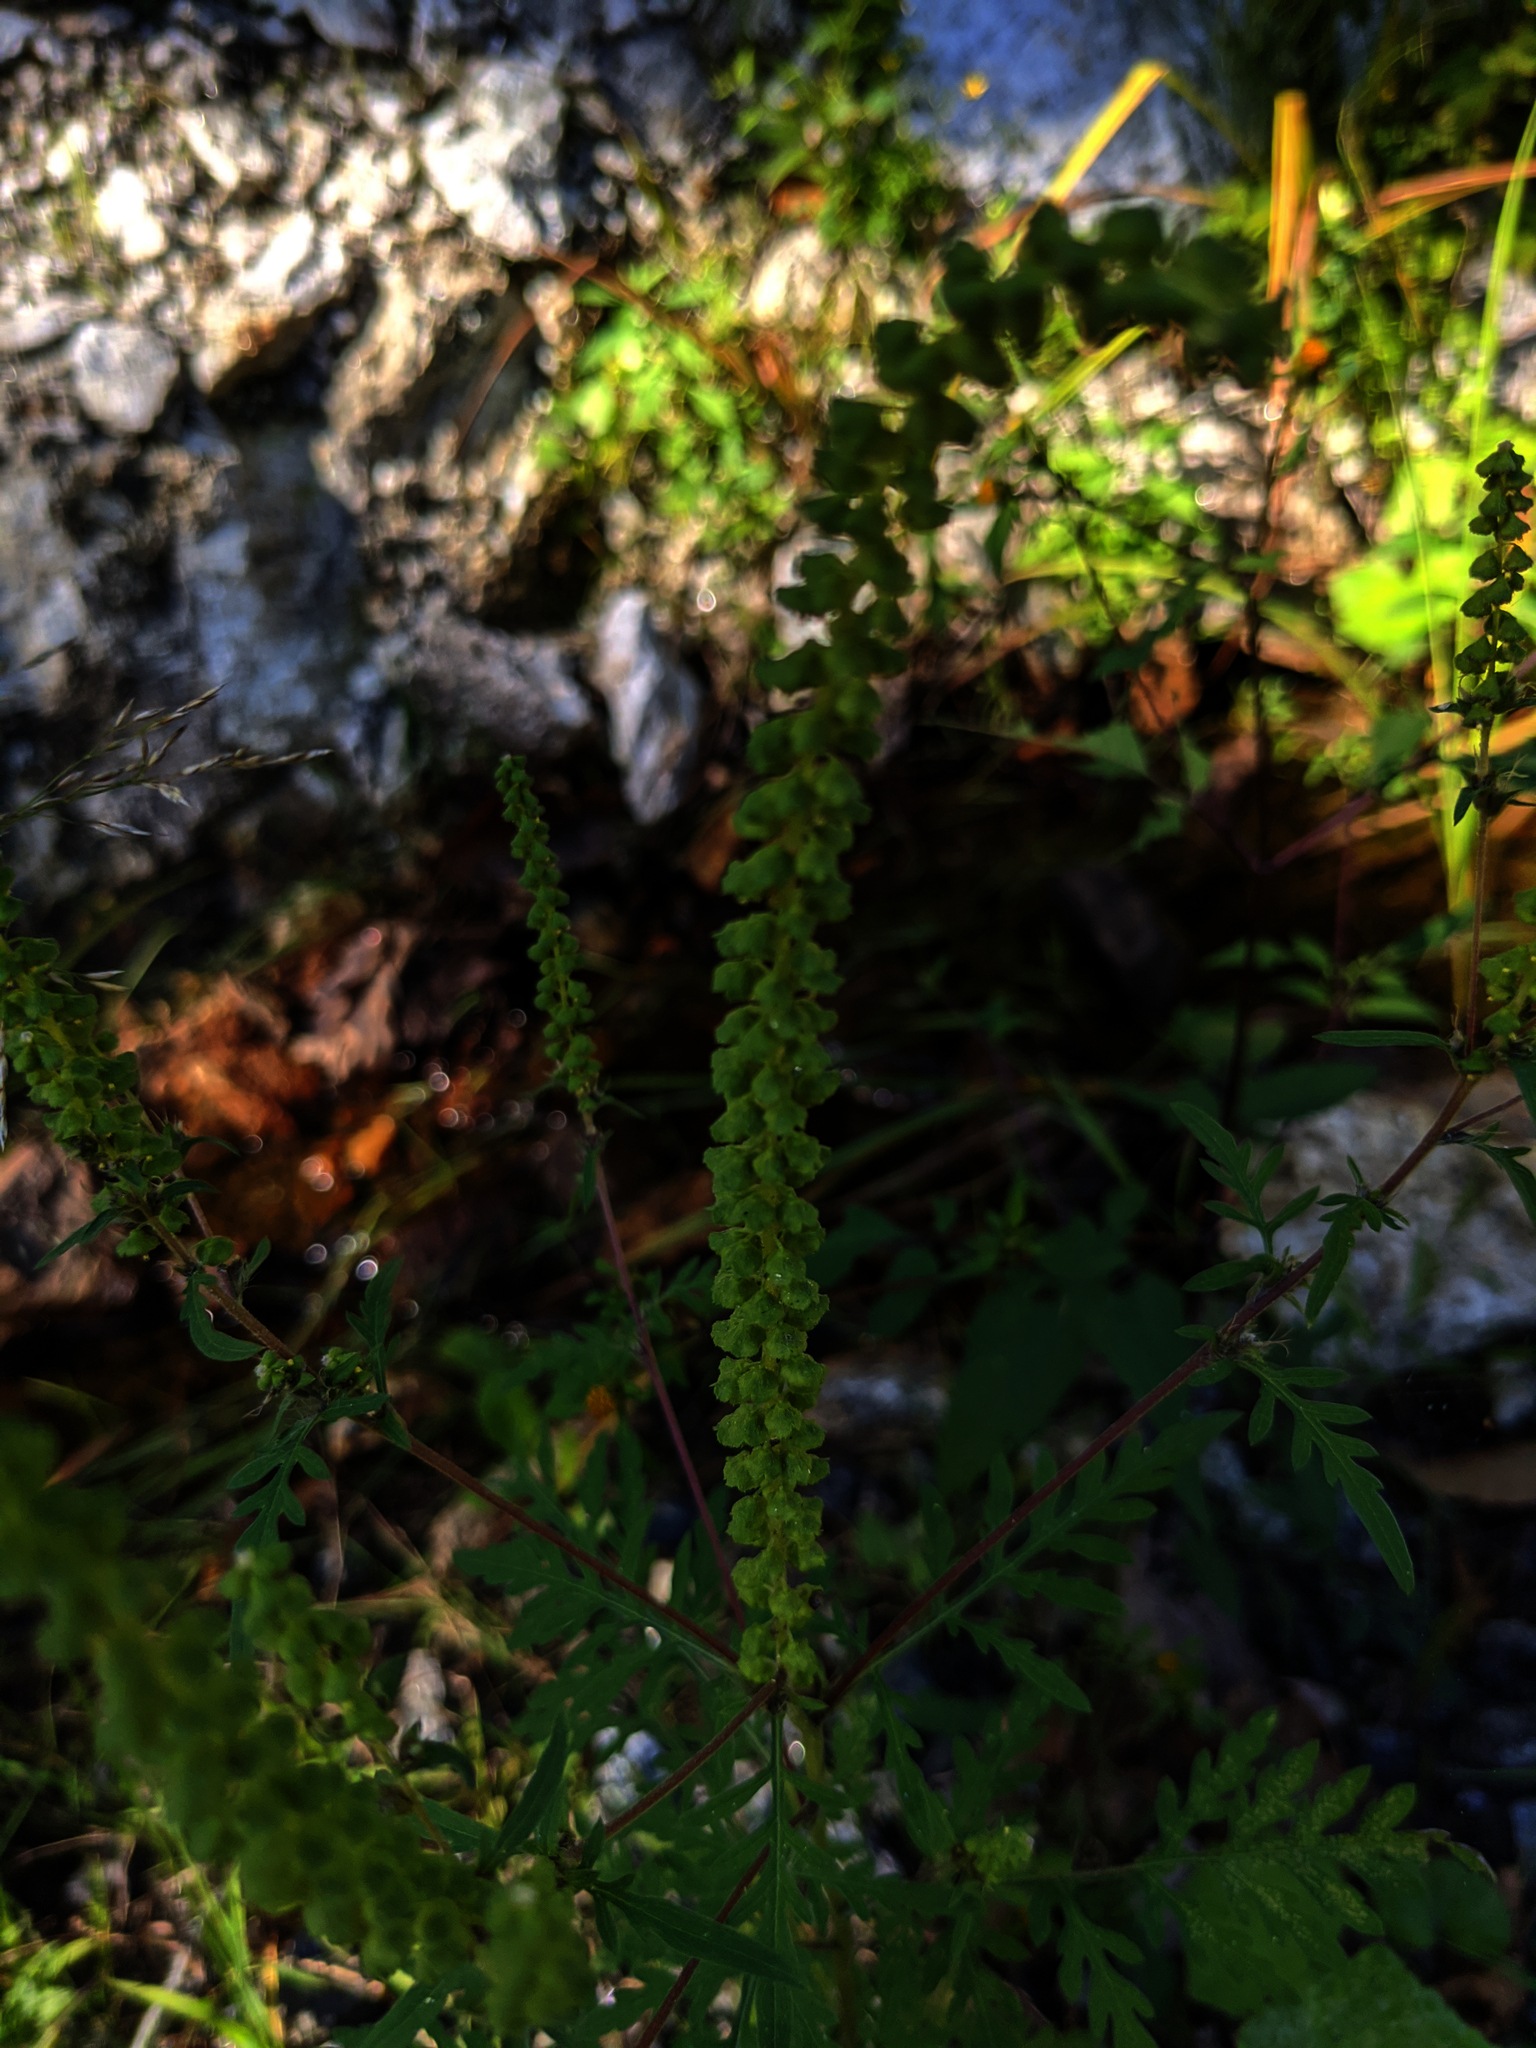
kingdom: Plantae
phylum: Tracheophyta
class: Magnoliopsida
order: Asterales
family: Asteraceae
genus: Ambrosia
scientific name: Ambrosia artemisiifolia
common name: Annual ragweed
